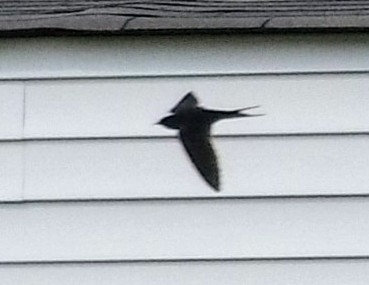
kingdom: Animalia
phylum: Chordata
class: Aves
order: Passeriformes
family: Hirundinidae
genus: Hirundo
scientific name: Hirundo rustica
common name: Barn swallow
